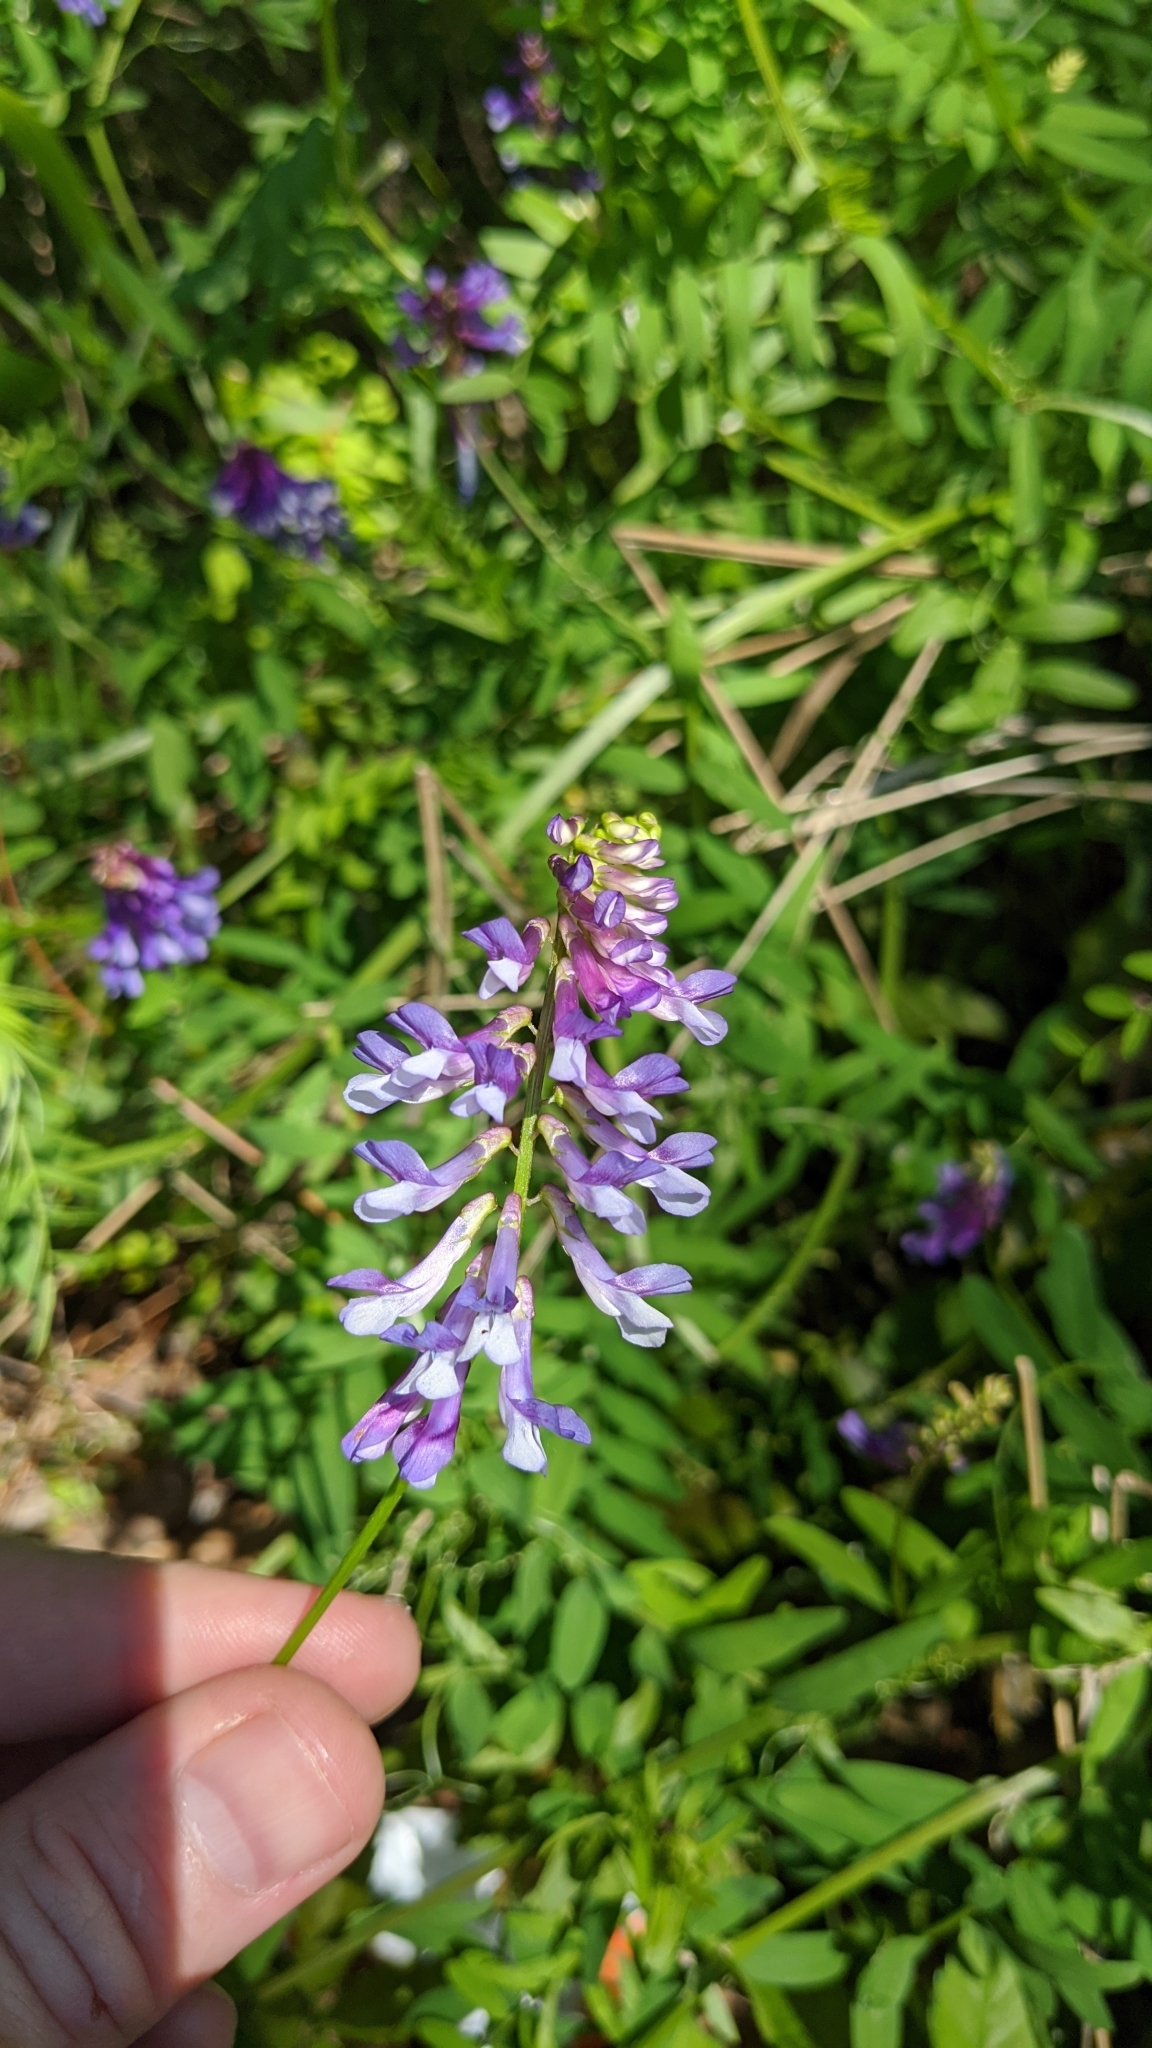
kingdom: Plantae
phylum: Tracheophyta
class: Magnoliopsida
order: Fabales
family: Fabaceae
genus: Vicia
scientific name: Vicia villosa
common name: Fodder vetch
